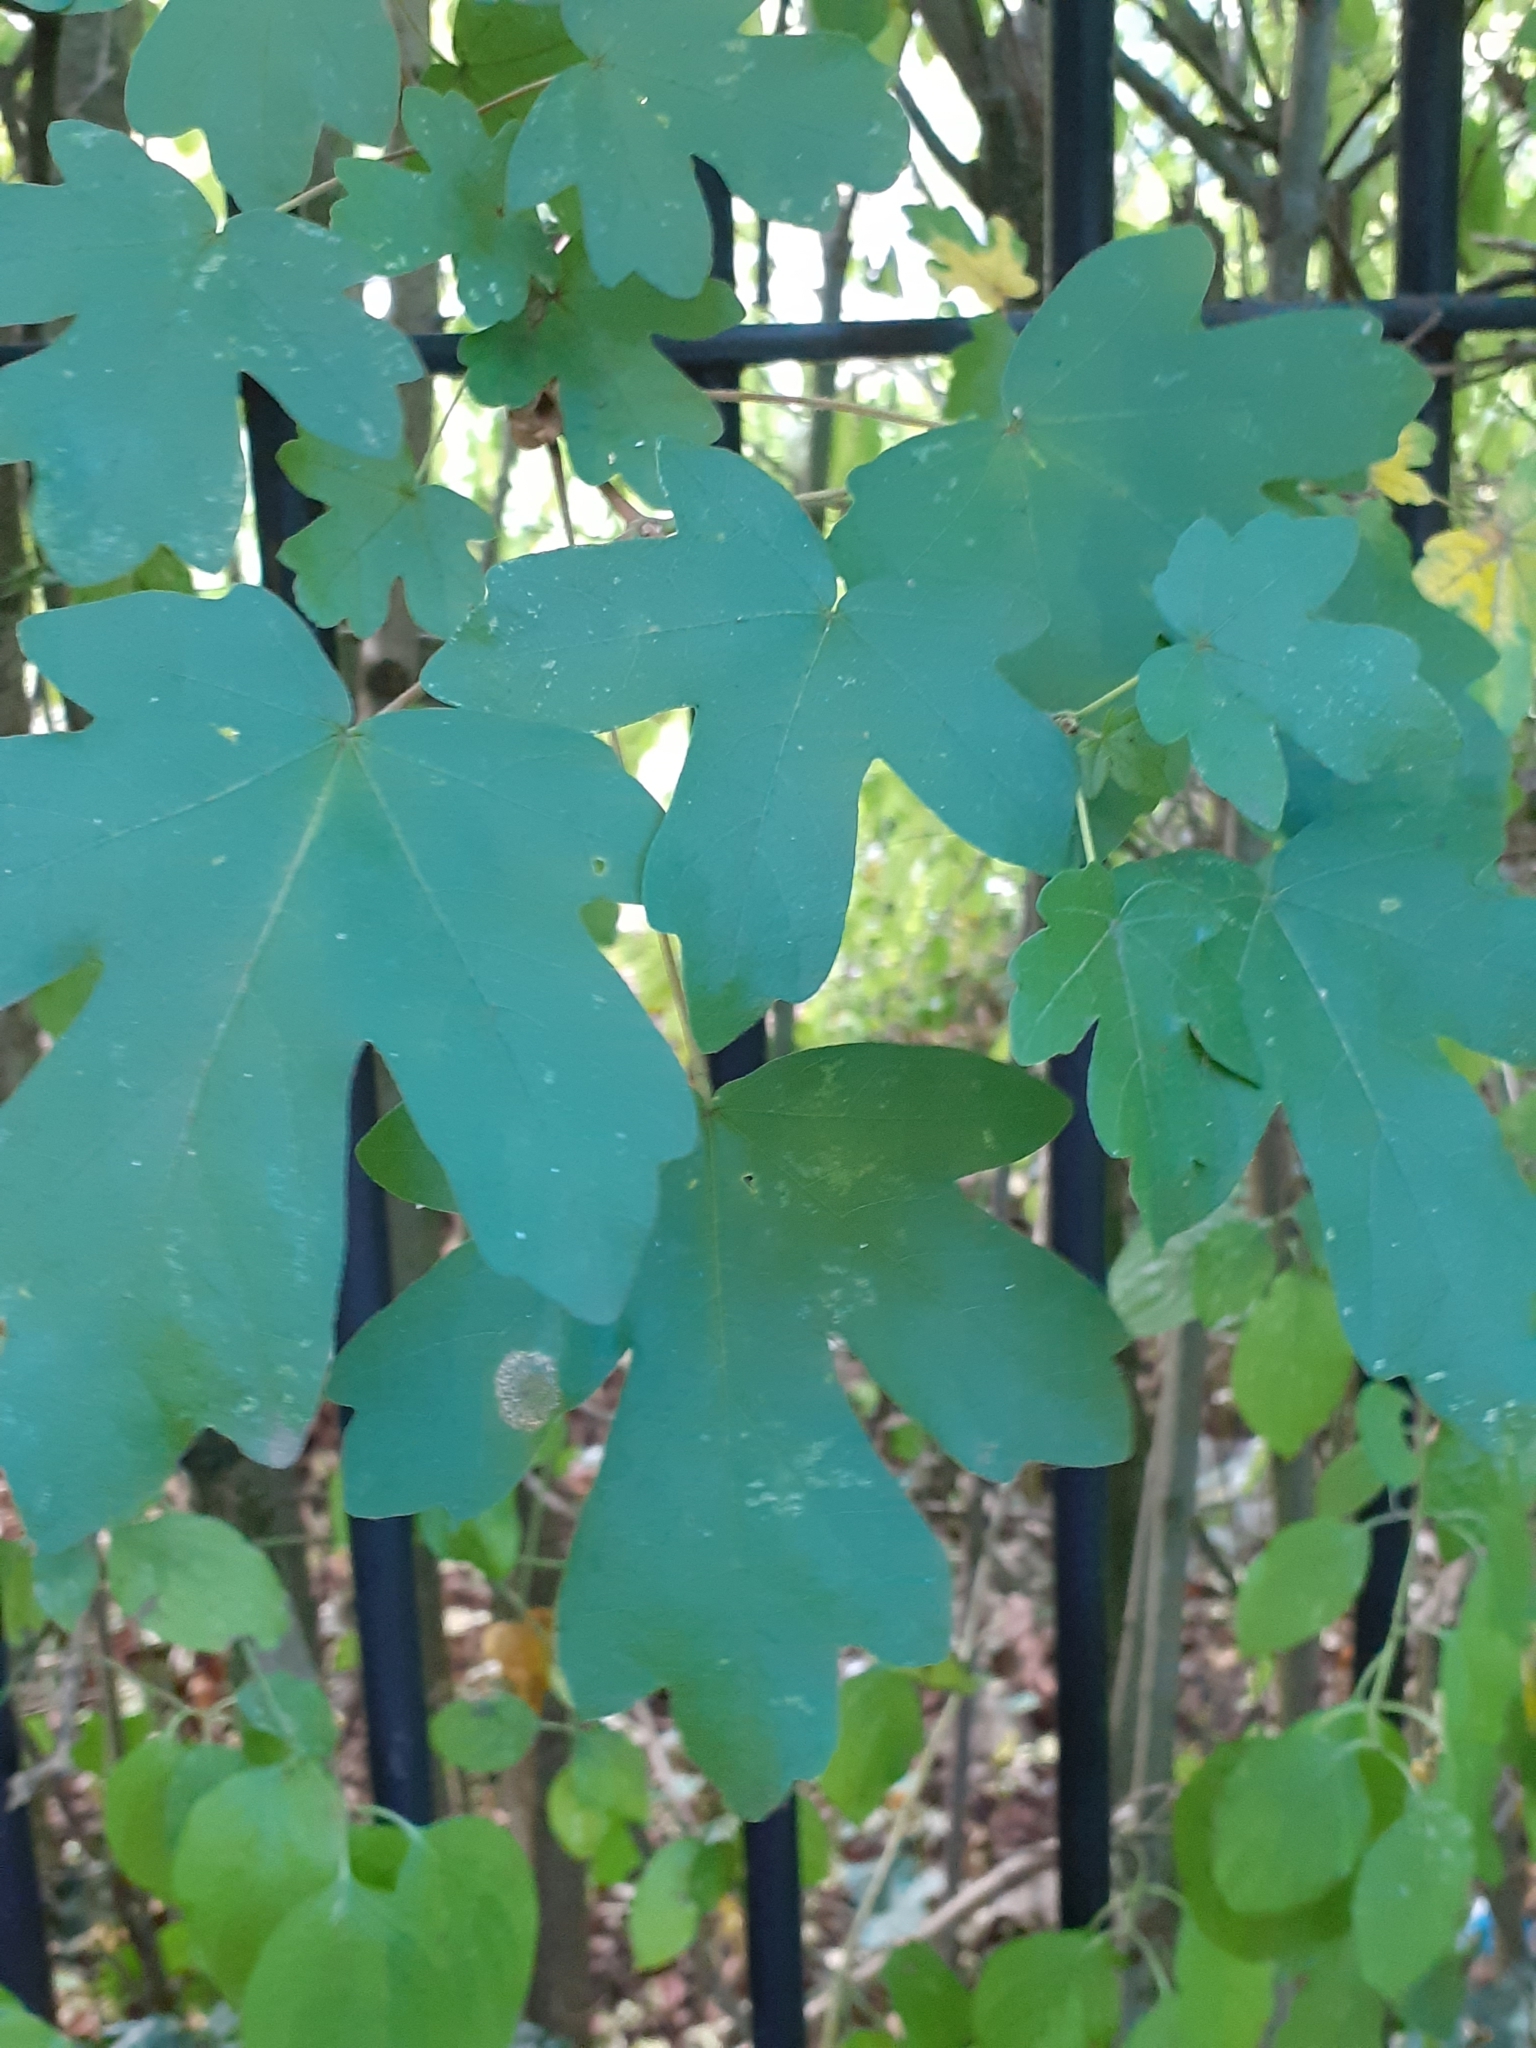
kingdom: Plantae
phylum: Tracheophyta
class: Magnoliopsida
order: Sapindales
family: Sapindaceae
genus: Acer
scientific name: Acer campestre
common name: Field maple
